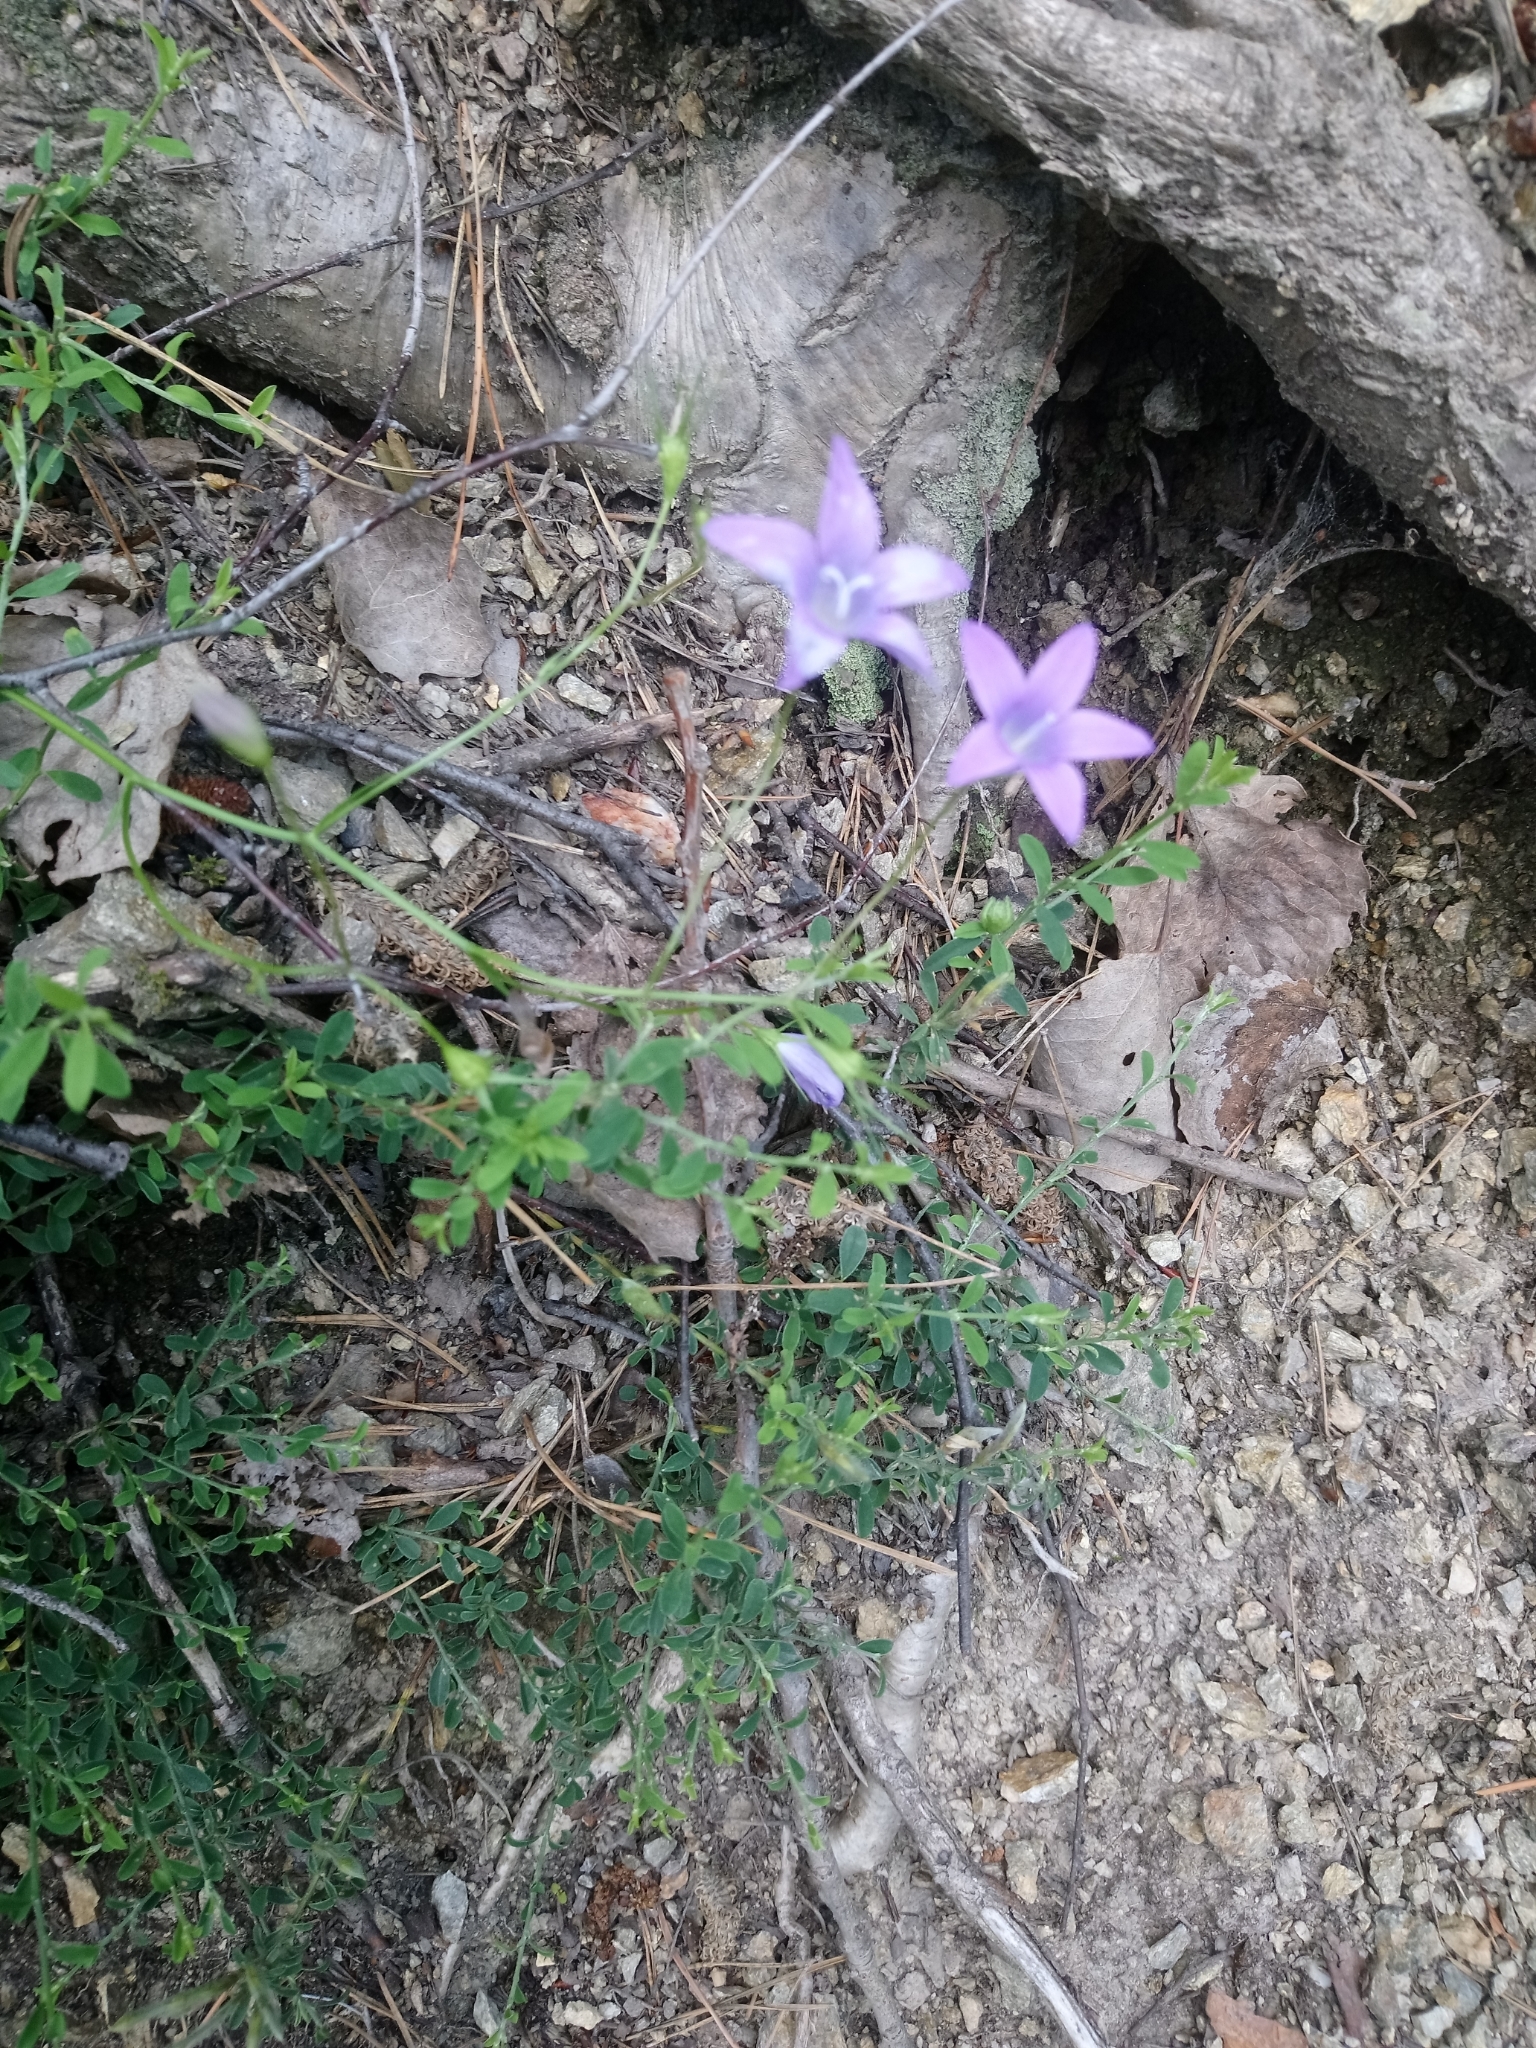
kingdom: Plantae
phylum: Tracheophyta
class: Magnoliopsida
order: Asterales
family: Campanulaceae
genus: Campanula
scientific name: Campanula patula
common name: Spreading bellflower
